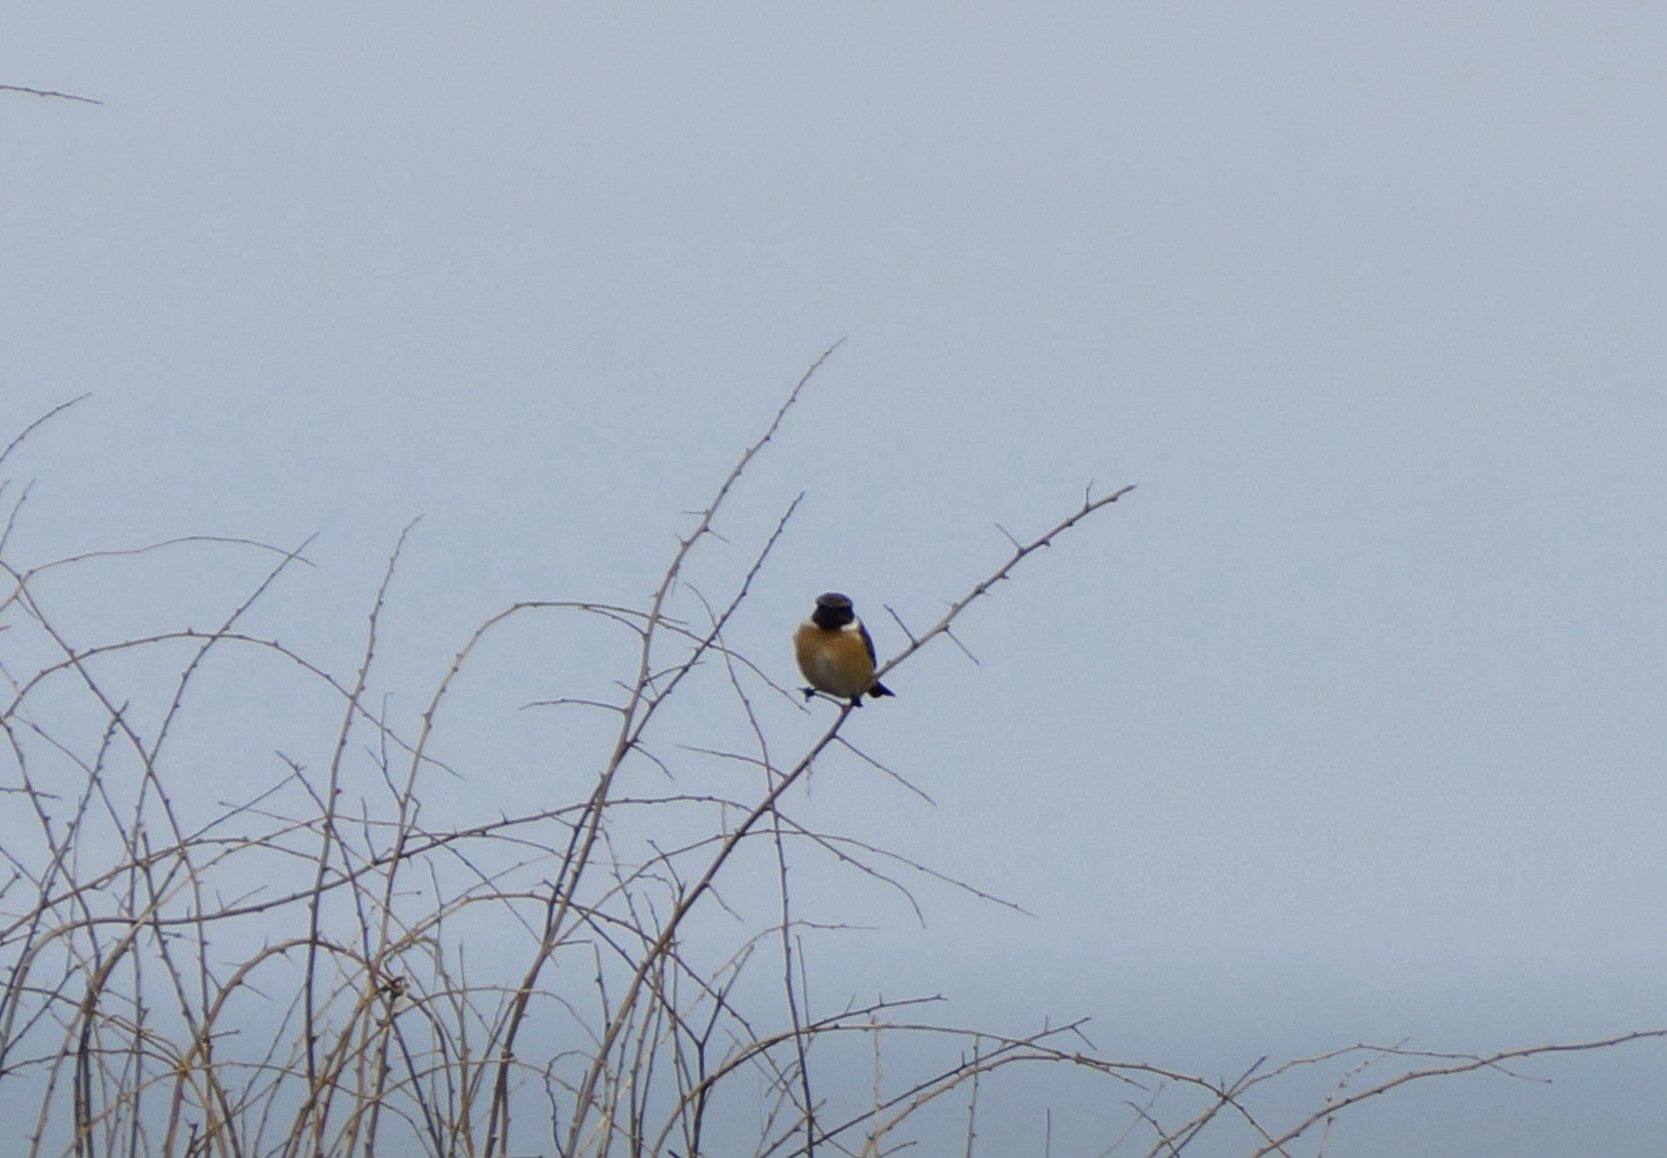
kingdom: Animalia
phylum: Chordata
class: Aves
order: Passeriformes
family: Muscicapidae
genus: Saxicola
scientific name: Saxicola rubicola
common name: European stonechat
